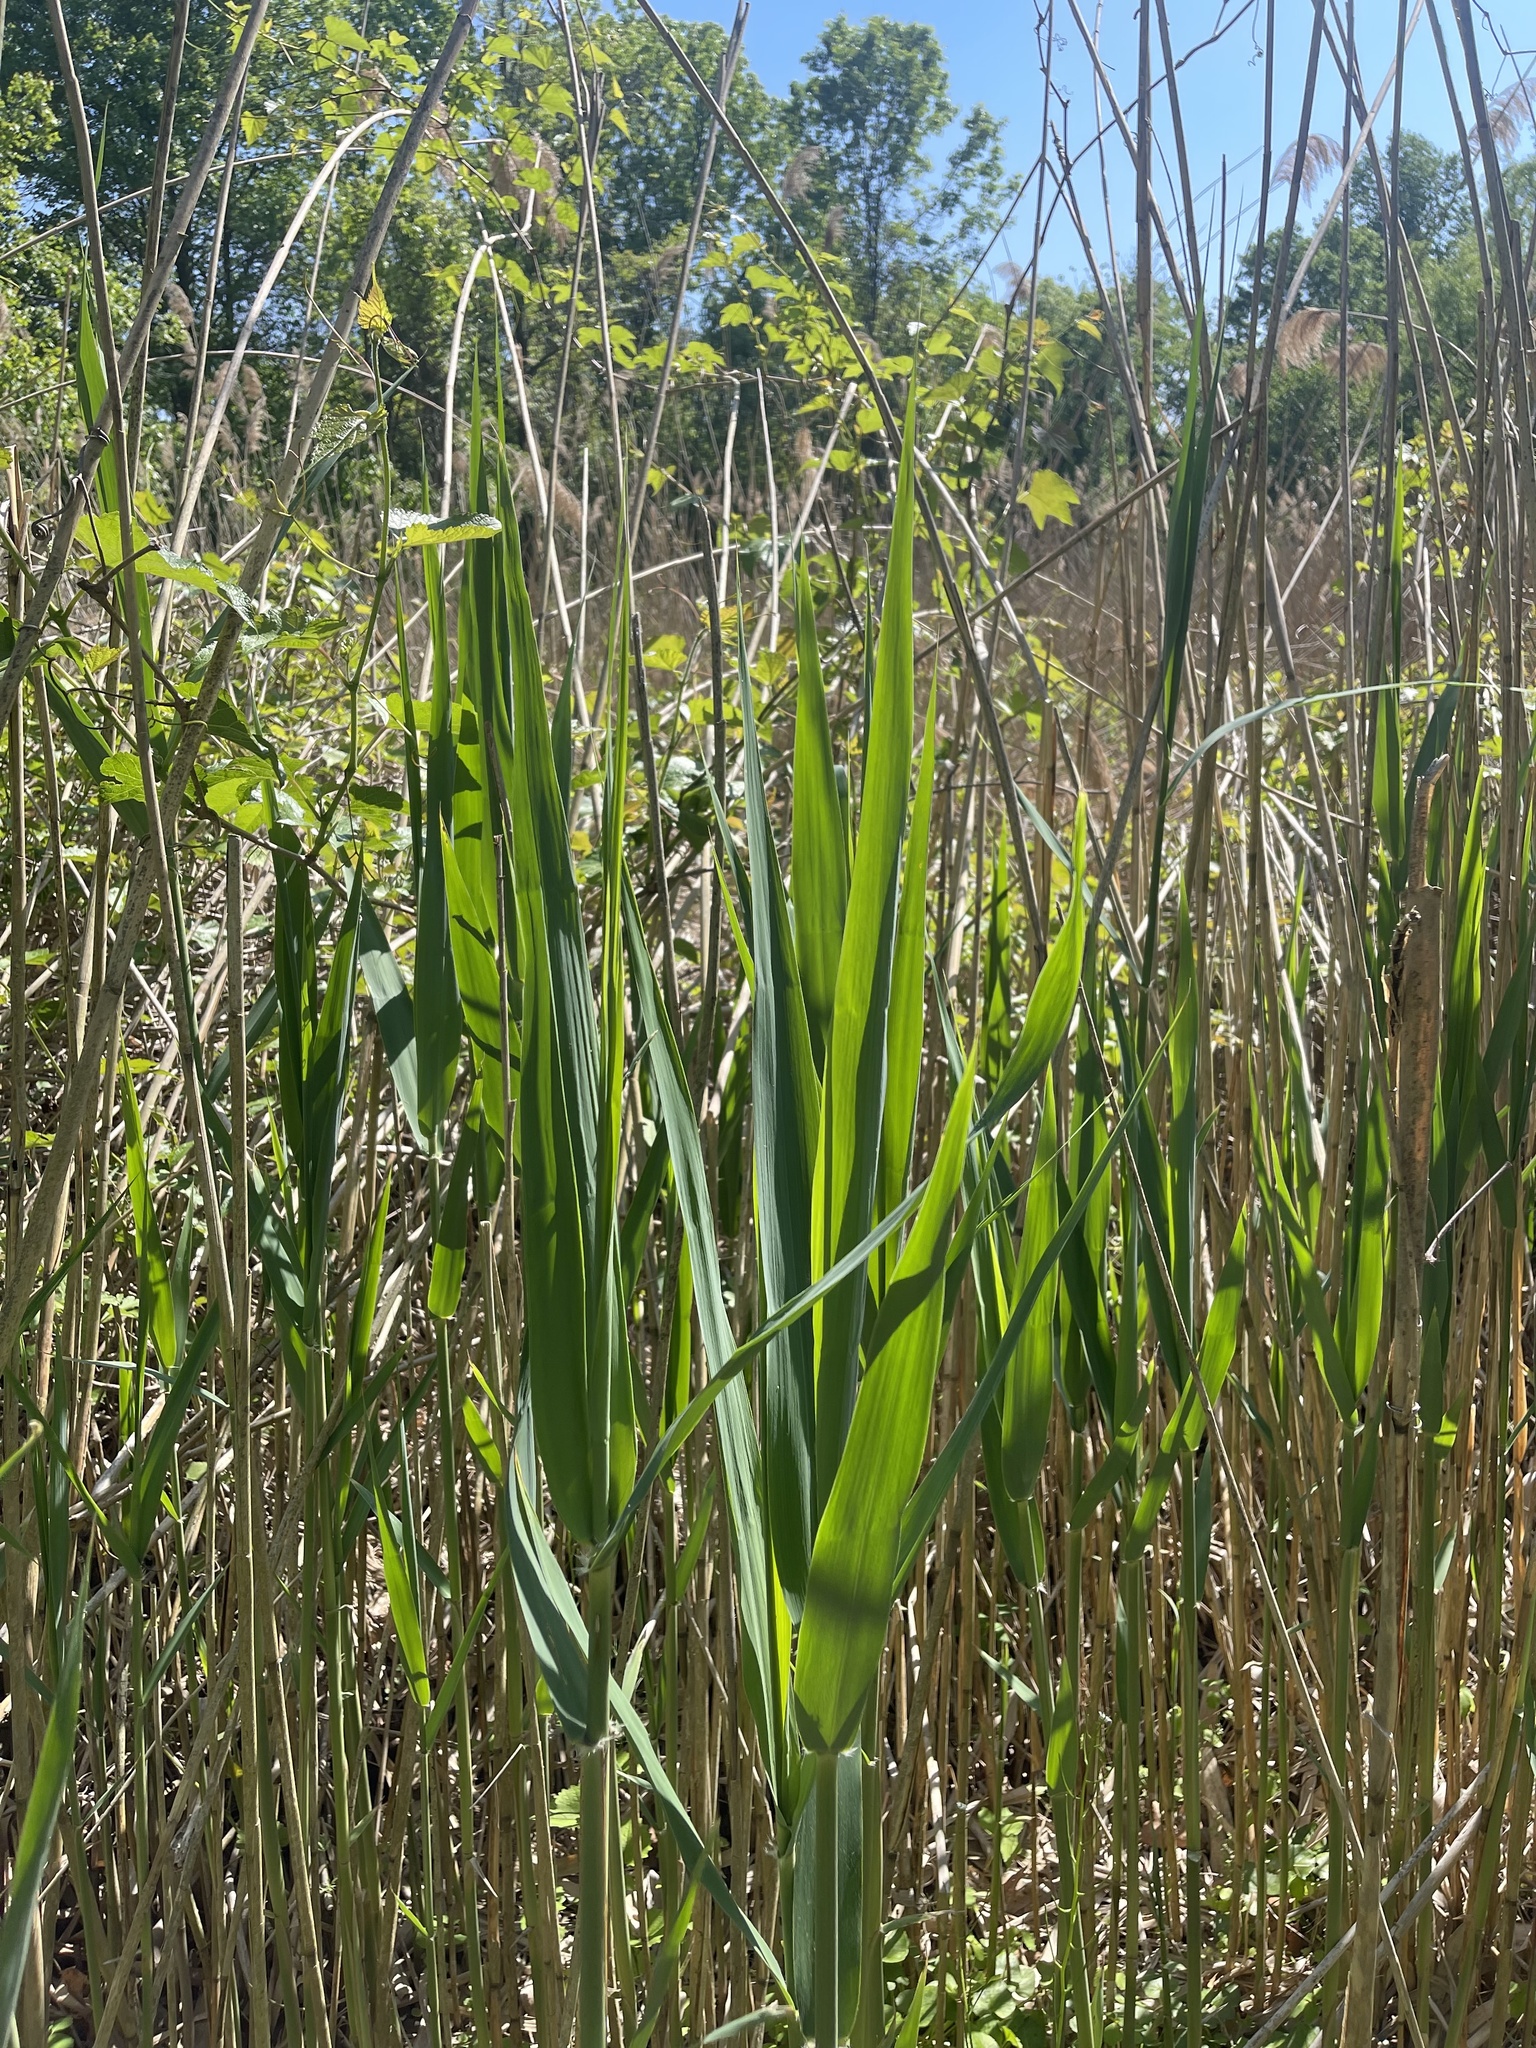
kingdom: Plantae
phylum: Tracheophyta
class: Liliopsida
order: Poales
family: Poaceae
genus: Phragmites
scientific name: Phragmites australis
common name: Common reed
